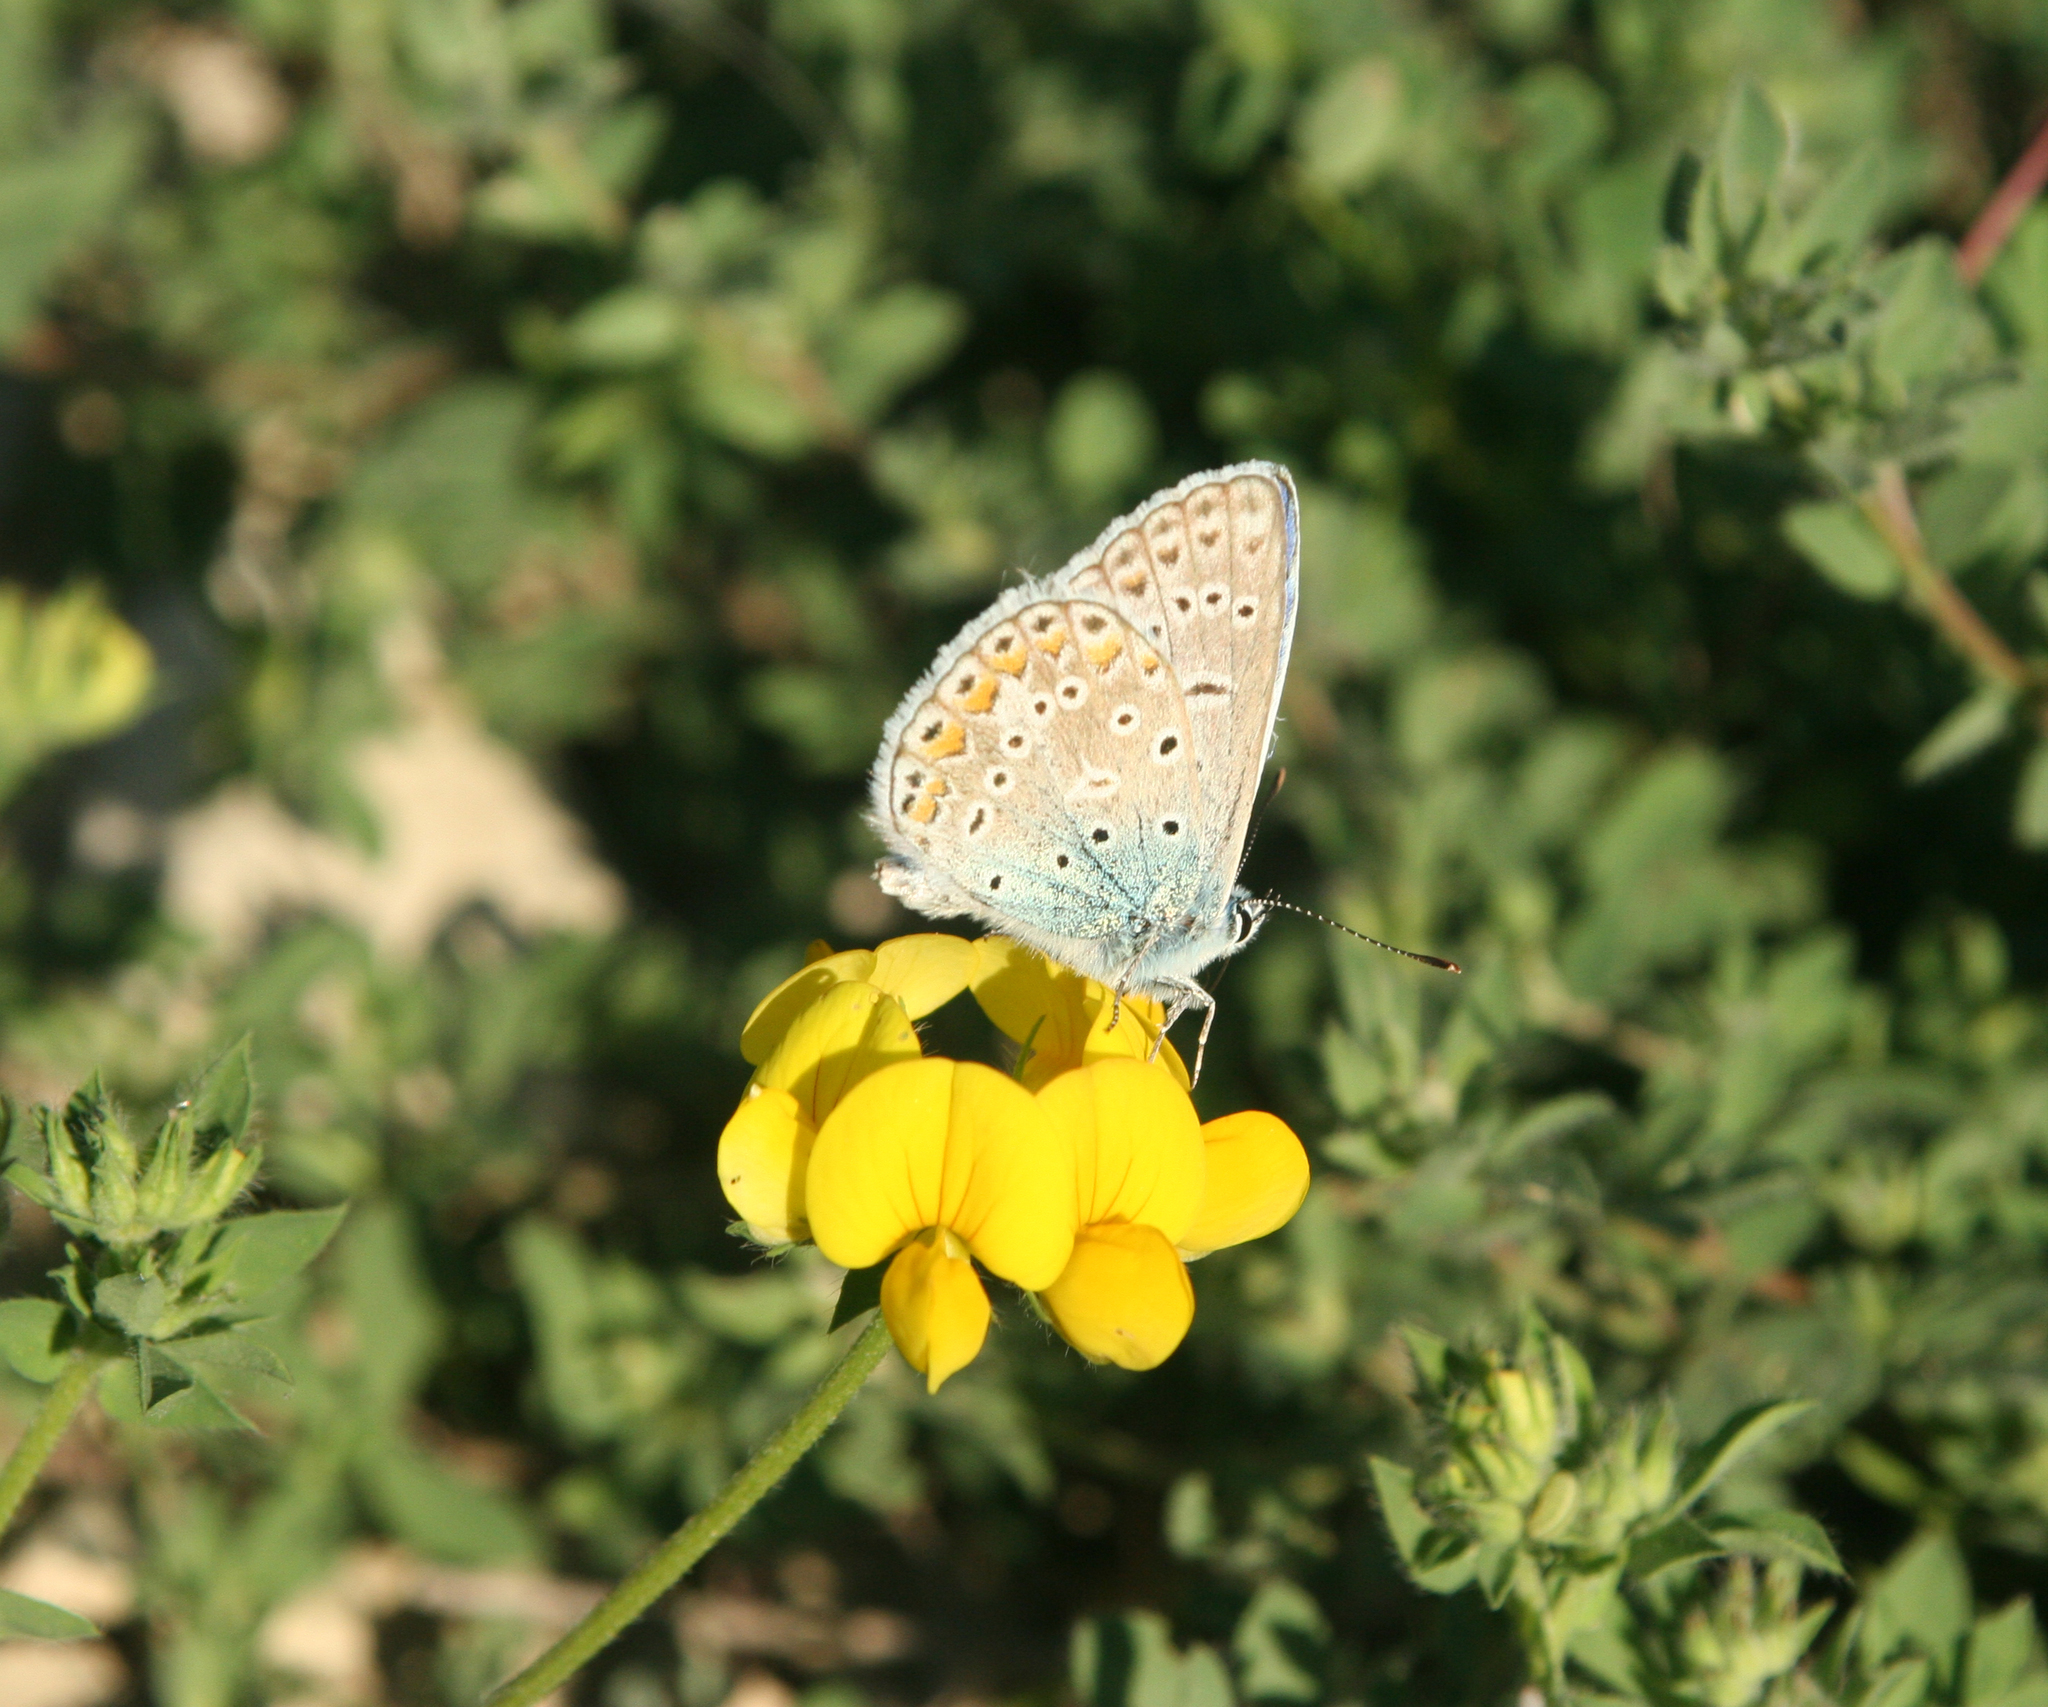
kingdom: Plantae
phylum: Tracheophyta
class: Magnoliopsida
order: Fabales
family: Fabaceae
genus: Lotus
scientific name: Lotus corniculatus
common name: Common bird's-foot-trefoil
